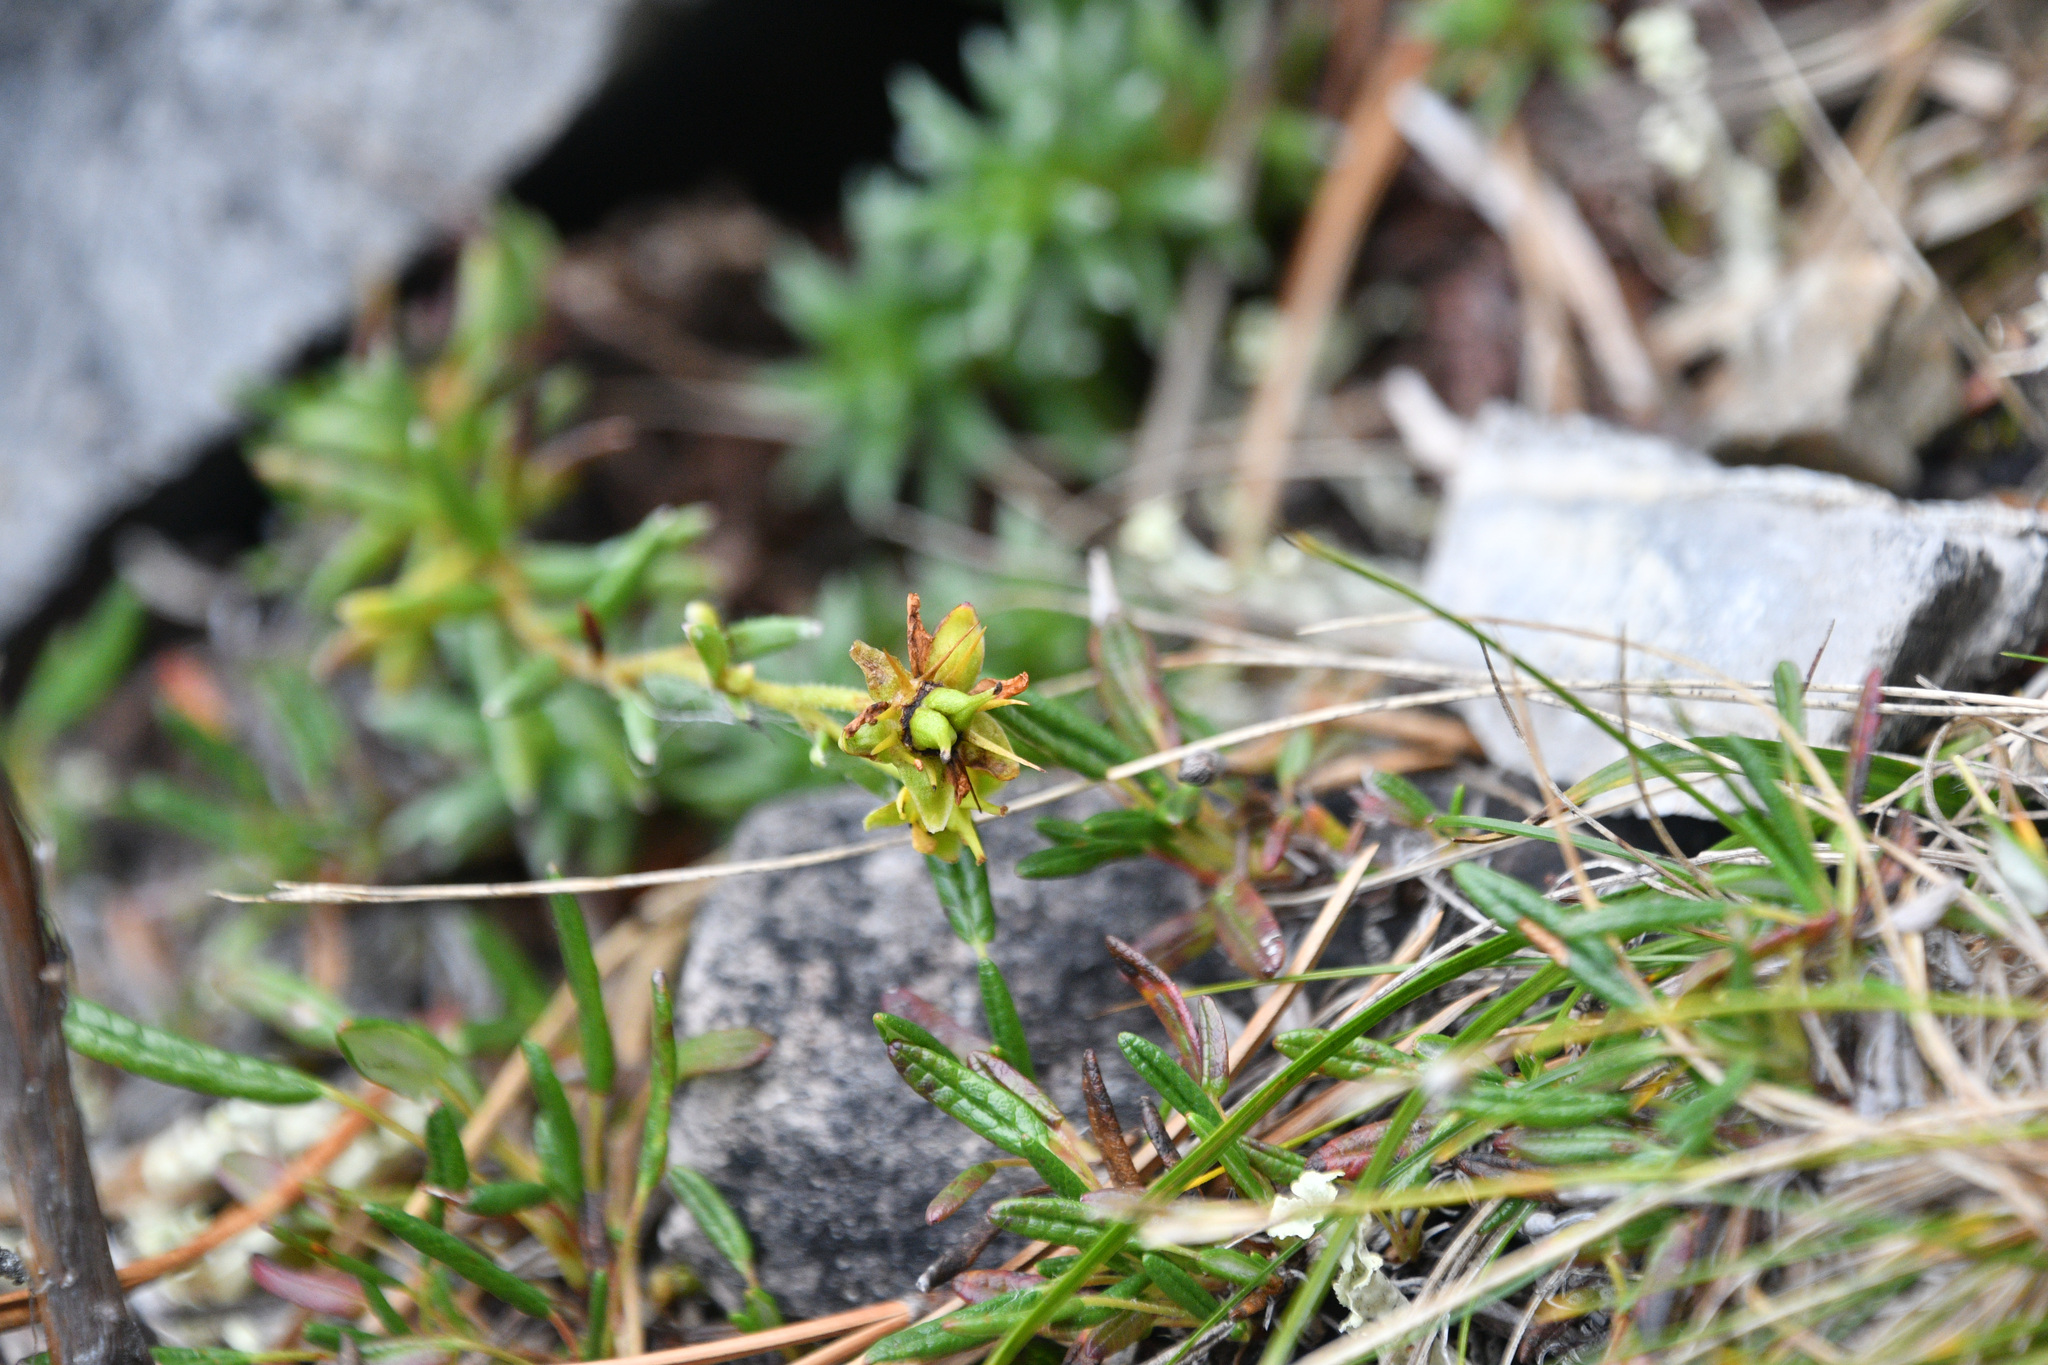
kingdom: Plantae
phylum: Tracheophyta
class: Magnoliopsida
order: Saxifragales
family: Saxifragaceae
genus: Saxifraga
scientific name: Saxifraga aizoides
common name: Yellow mountain saxifrage
